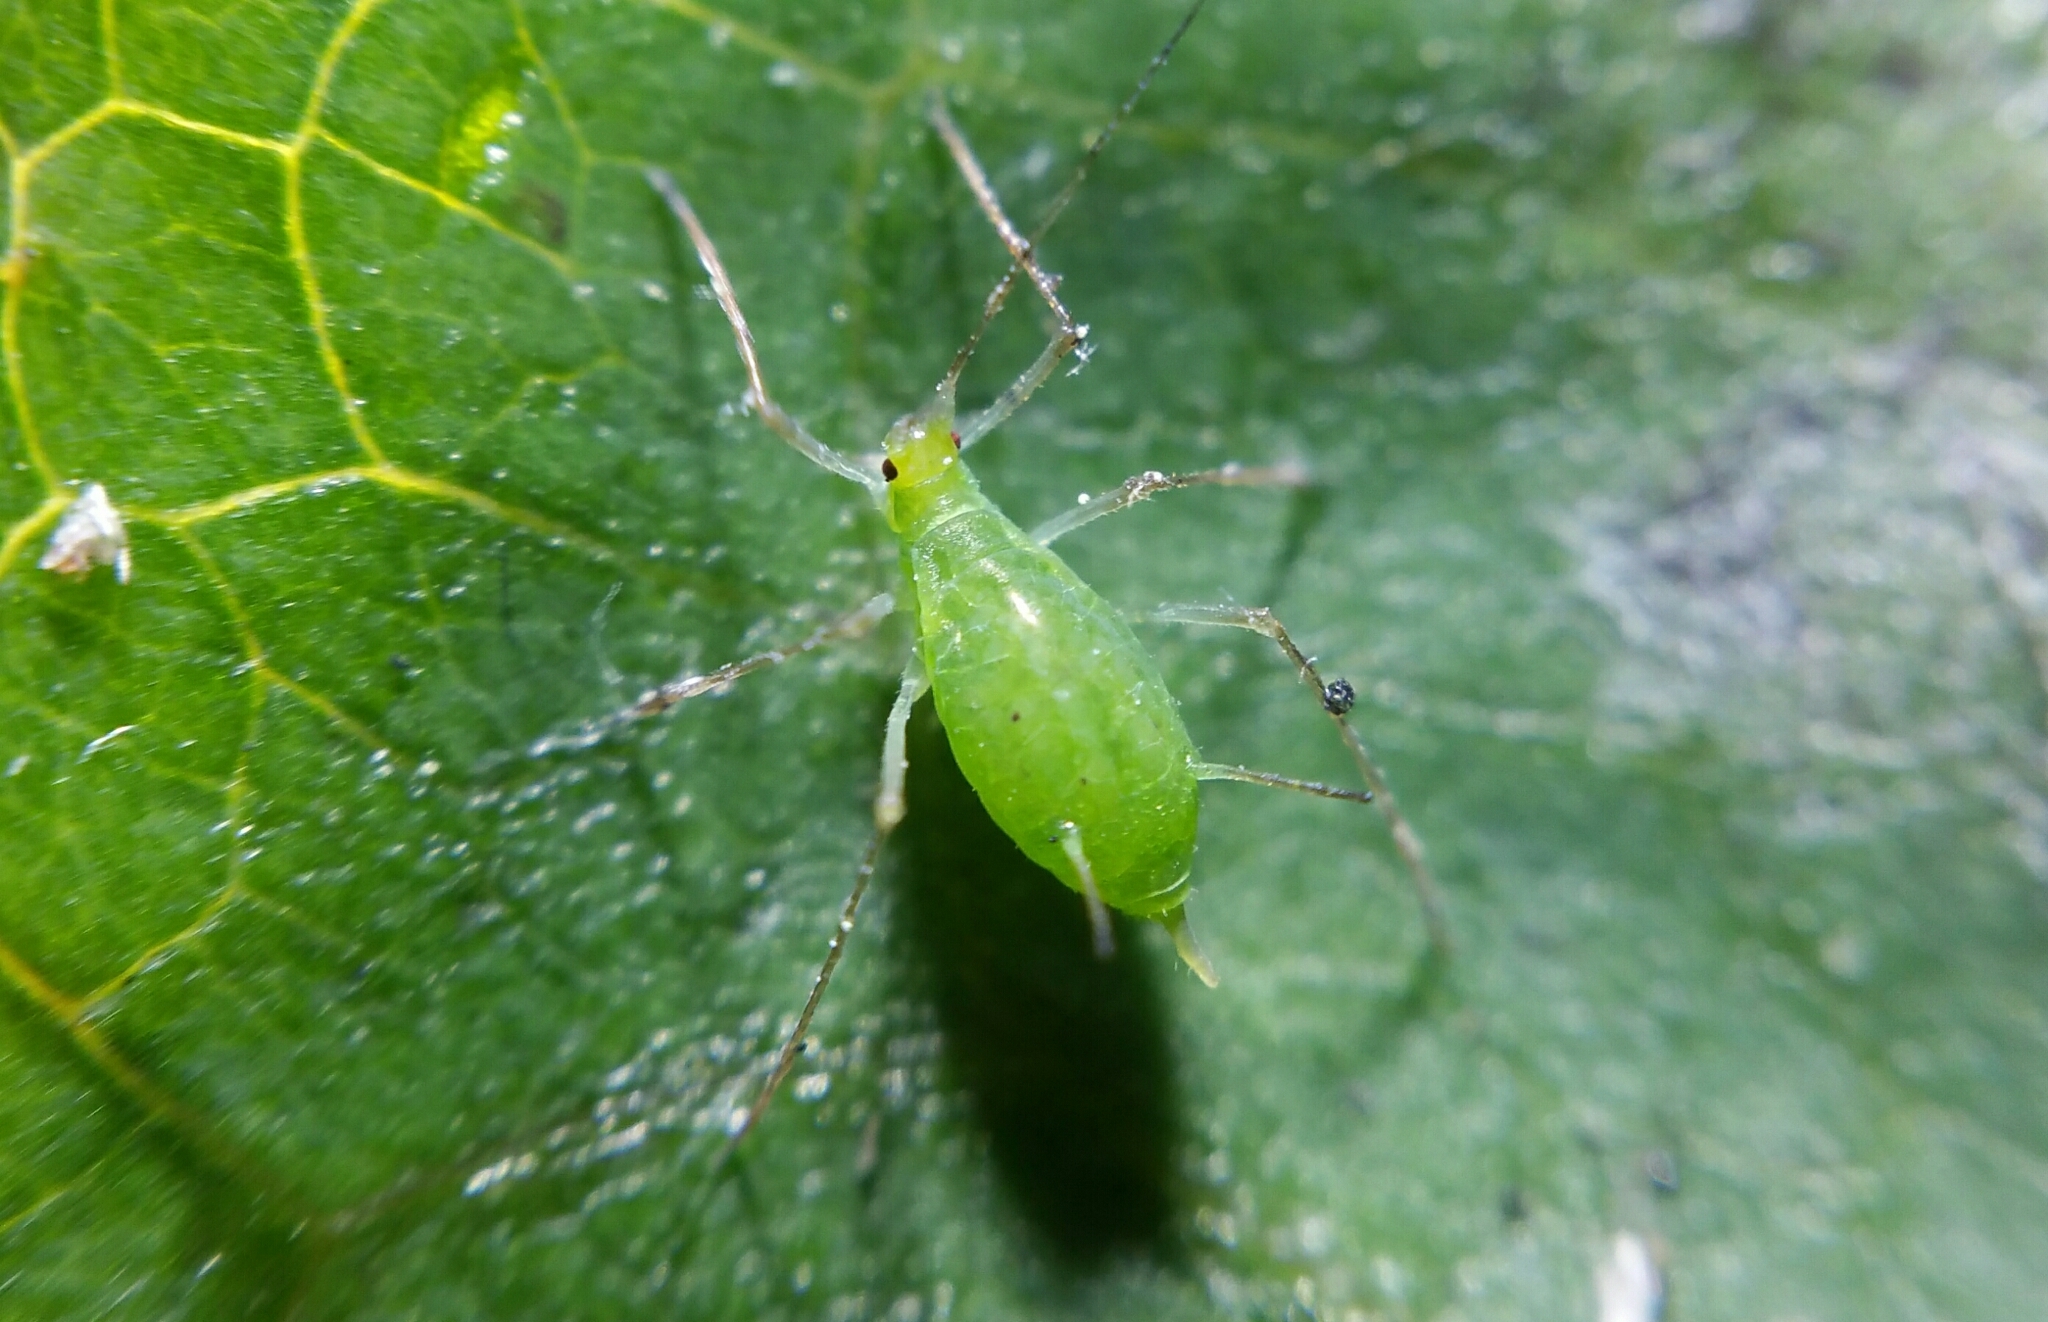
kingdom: Animalia
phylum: Arthropoda
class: Insecta
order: Hemiptera
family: Aphididae
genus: Macrosiphum
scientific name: Macrosiphum euphorbiae
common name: Potato aphid
